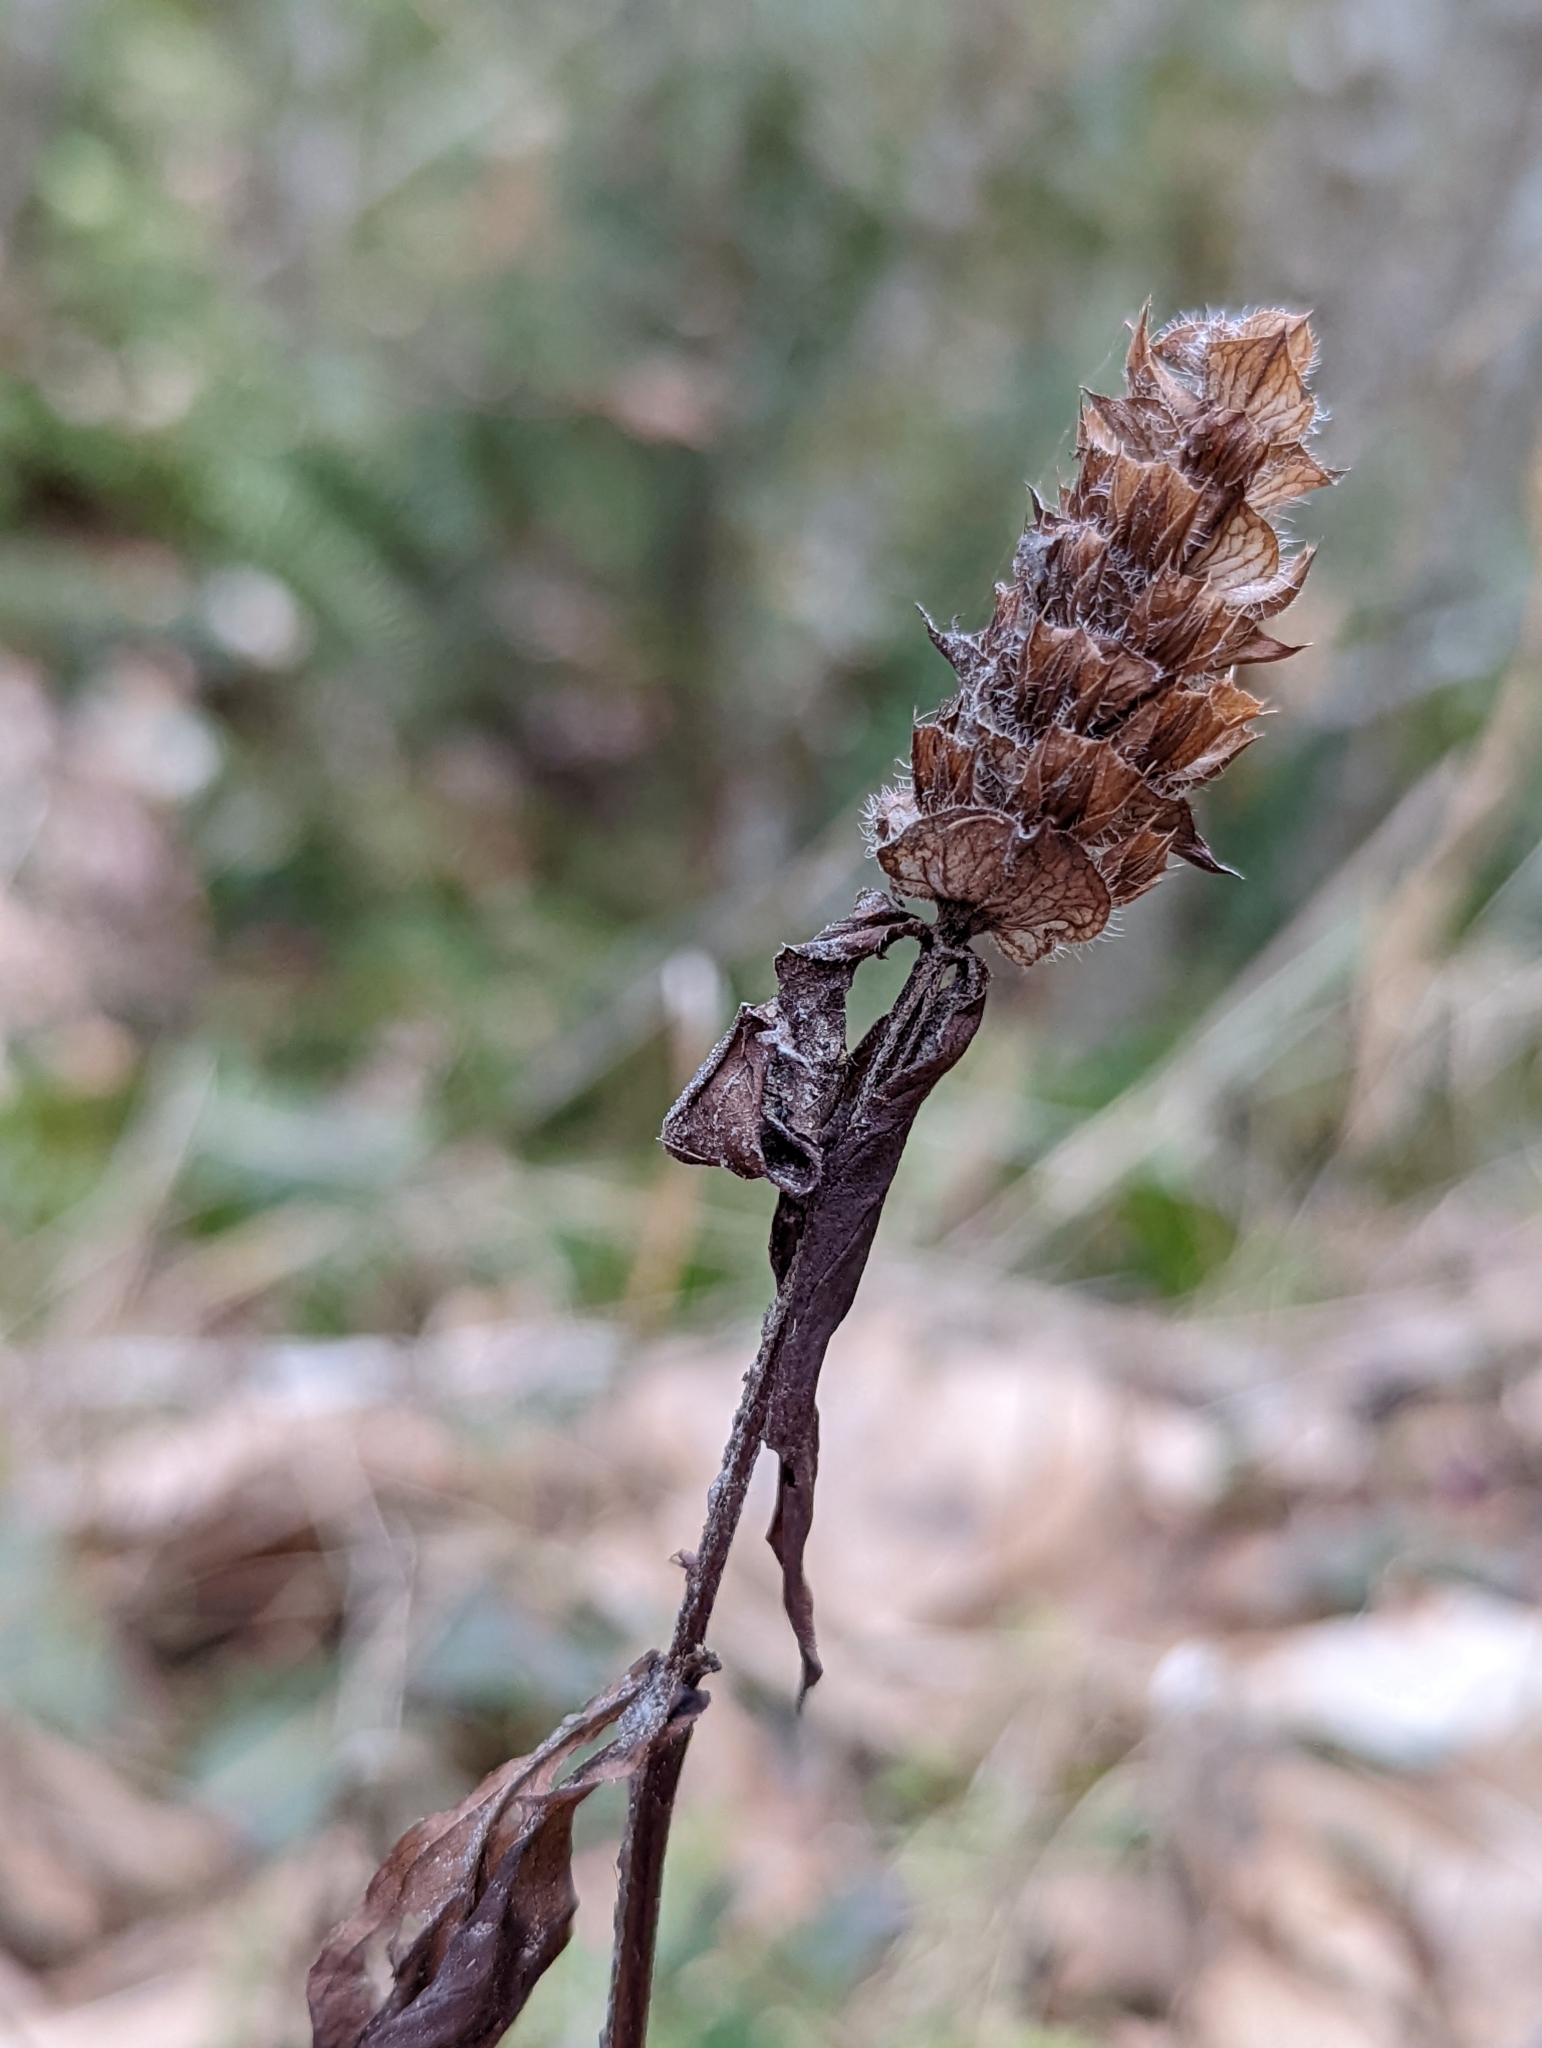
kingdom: Plantae
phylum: Tracheophyta
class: Magnoliopsida
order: Lamiales
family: Lamiaceae
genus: Prunella
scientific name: Prunella vulgaris
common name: Heal-all
